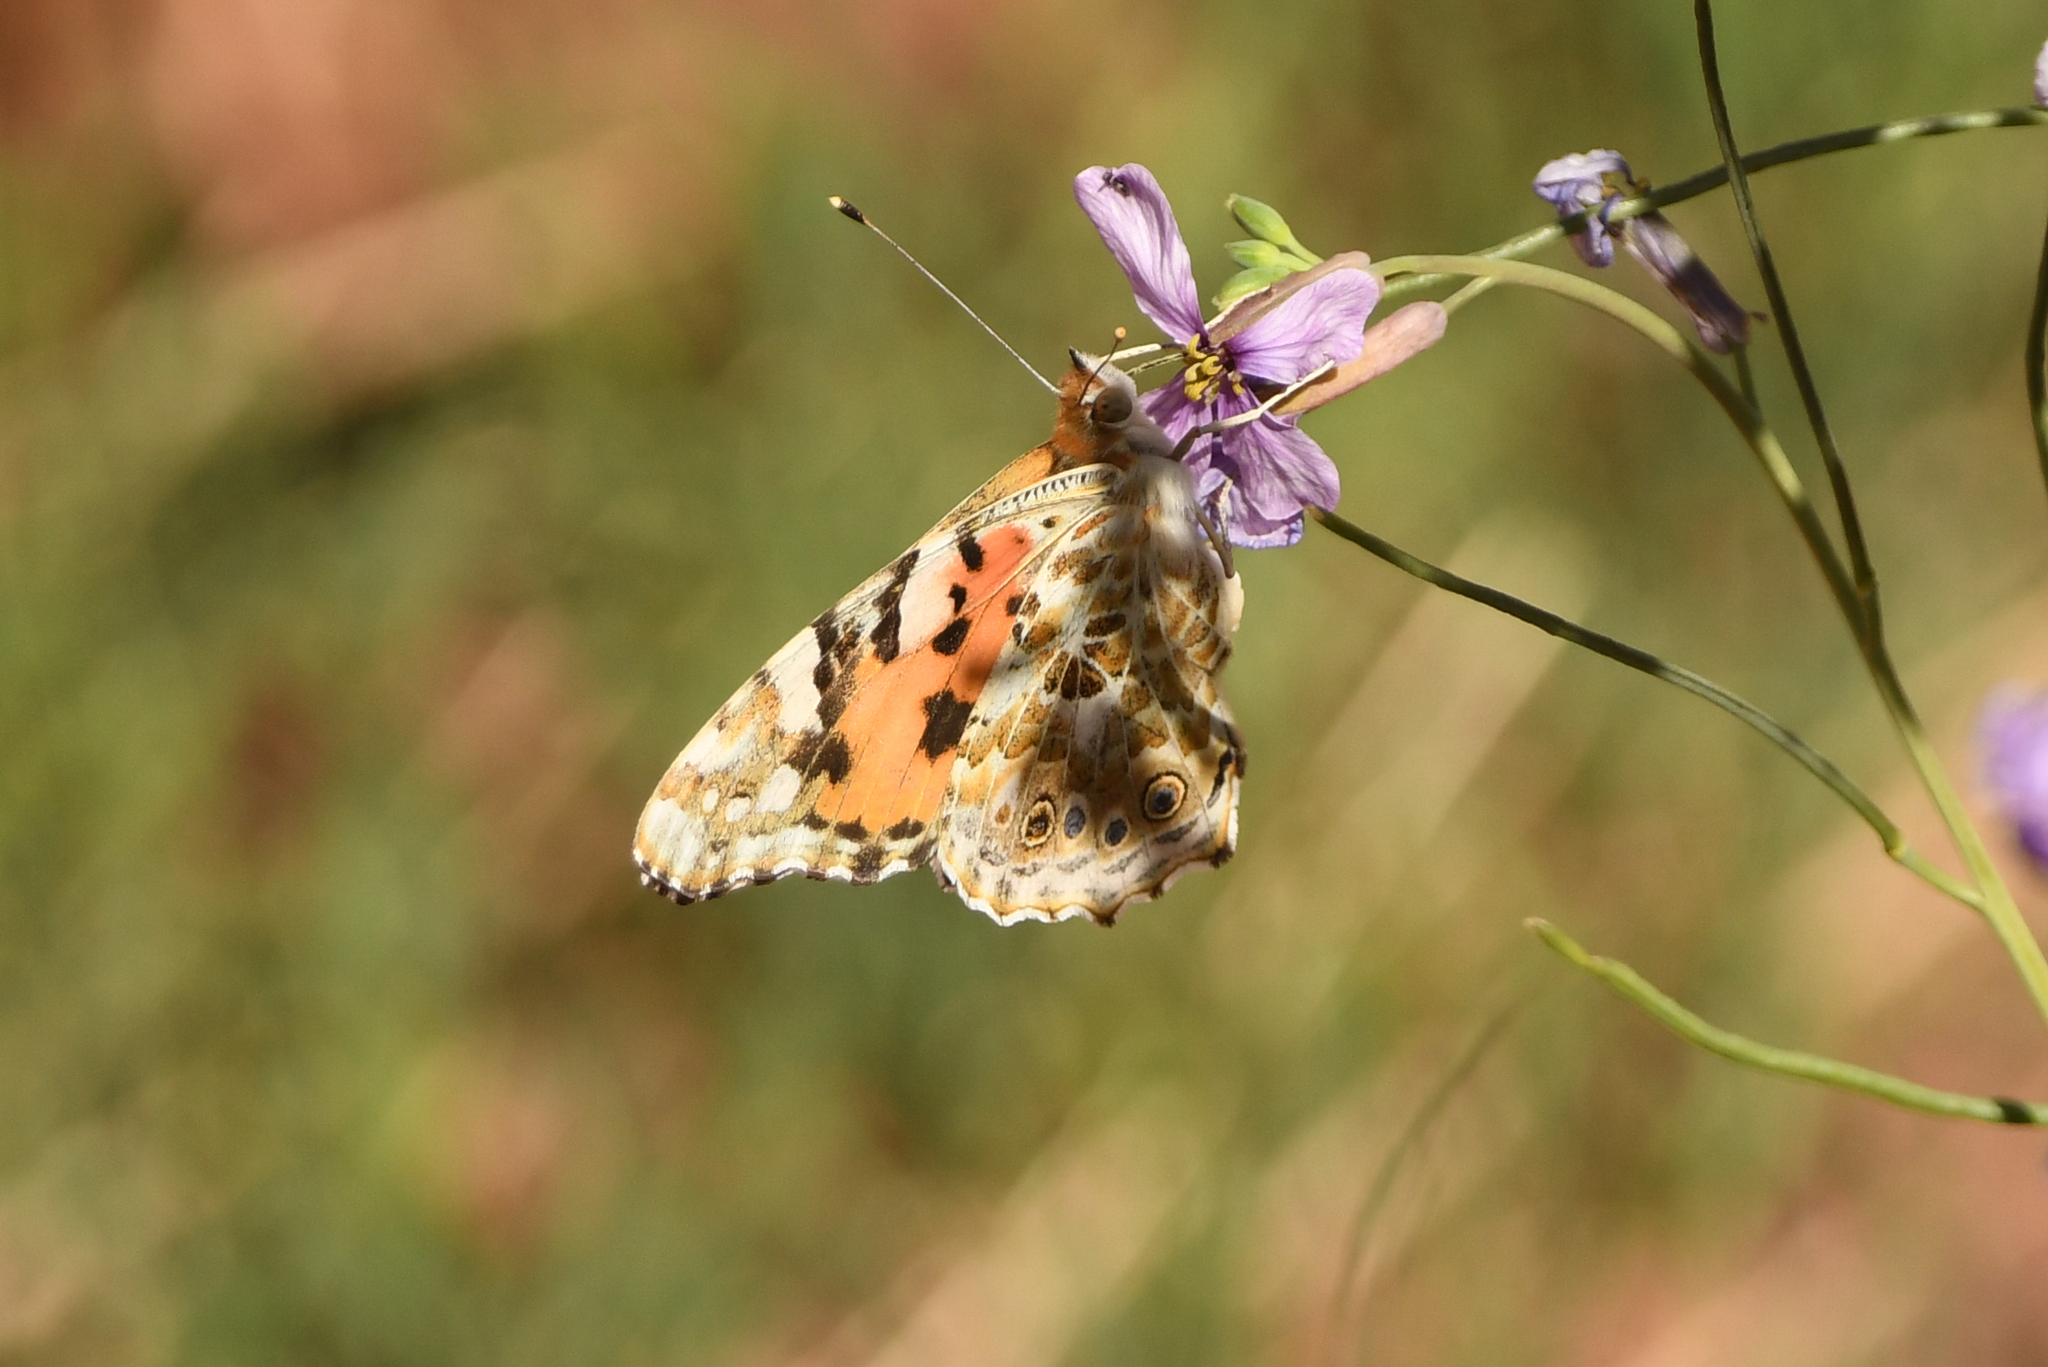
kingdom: Animalia
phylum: Arthropoda
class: Insecta
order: Lepidoptera
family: Nymphalidae
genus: Vanessa
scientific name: Vanessa cardui
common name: Painted lady
